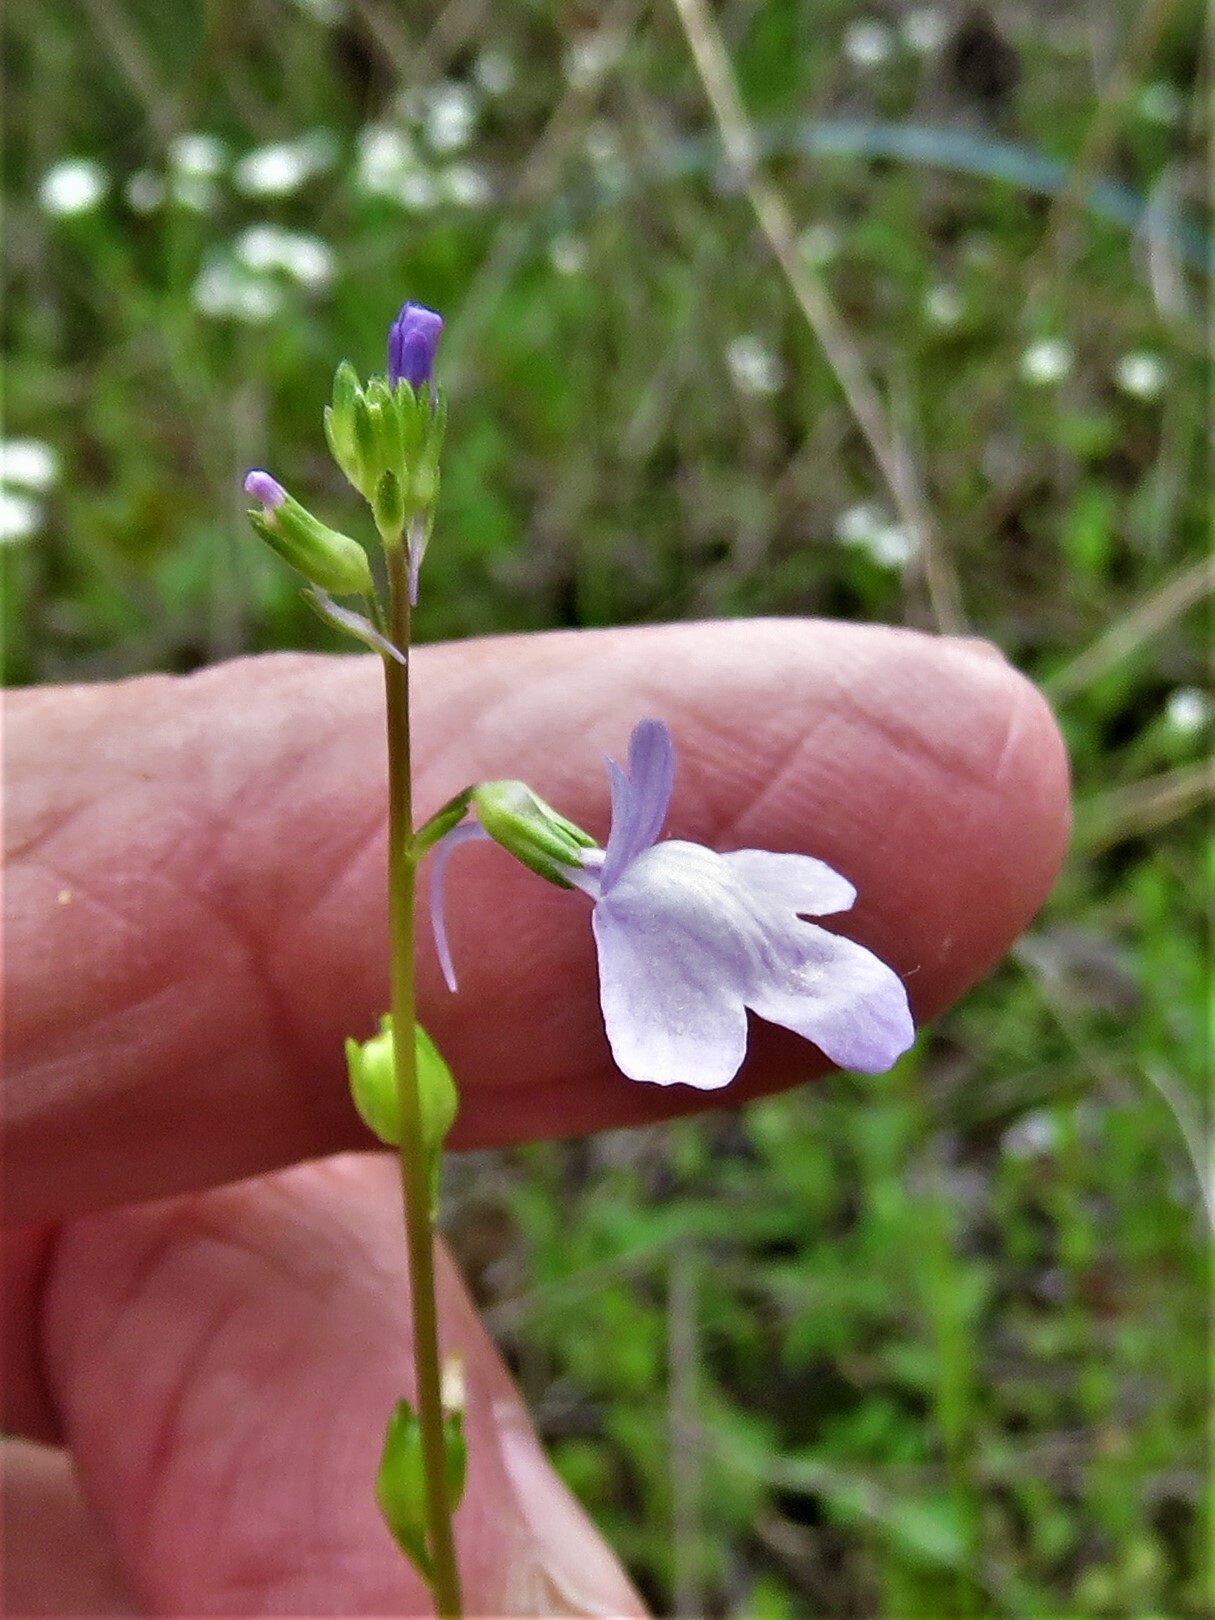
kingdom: Plantae
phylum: Tracheophyta
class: Magnoliopsida
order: Lamiales
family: Plantaginaceae
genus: Nuttallanthus
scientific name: Nuttallanthus texanus
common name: Texas toadflax
